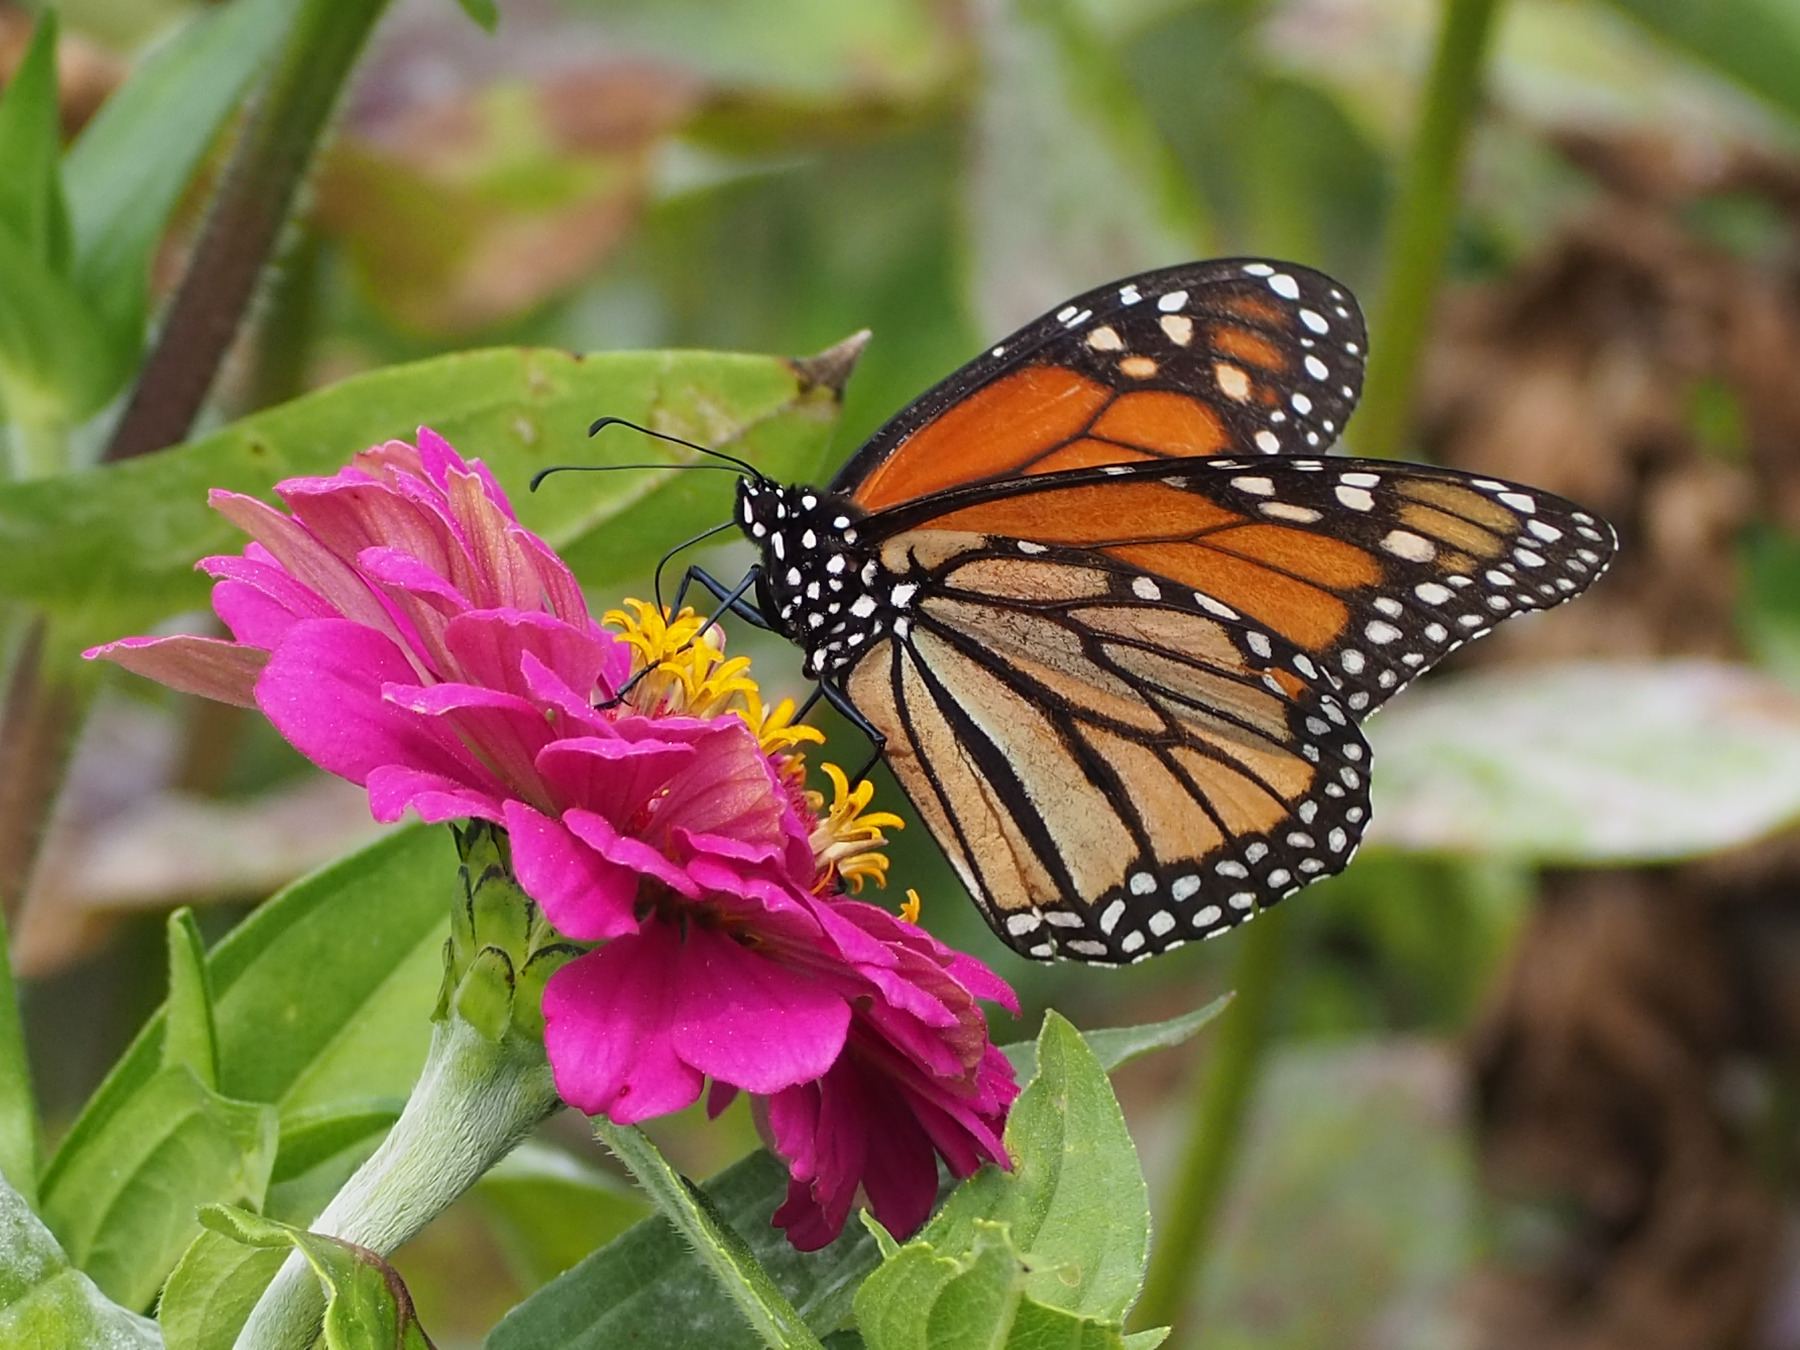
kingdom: Animalia
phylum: Arthropoda
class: Insecta
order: Lepidoptera
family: Nymphalidae
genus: Danaus
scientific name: Danaus plexippus
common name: Monarch
